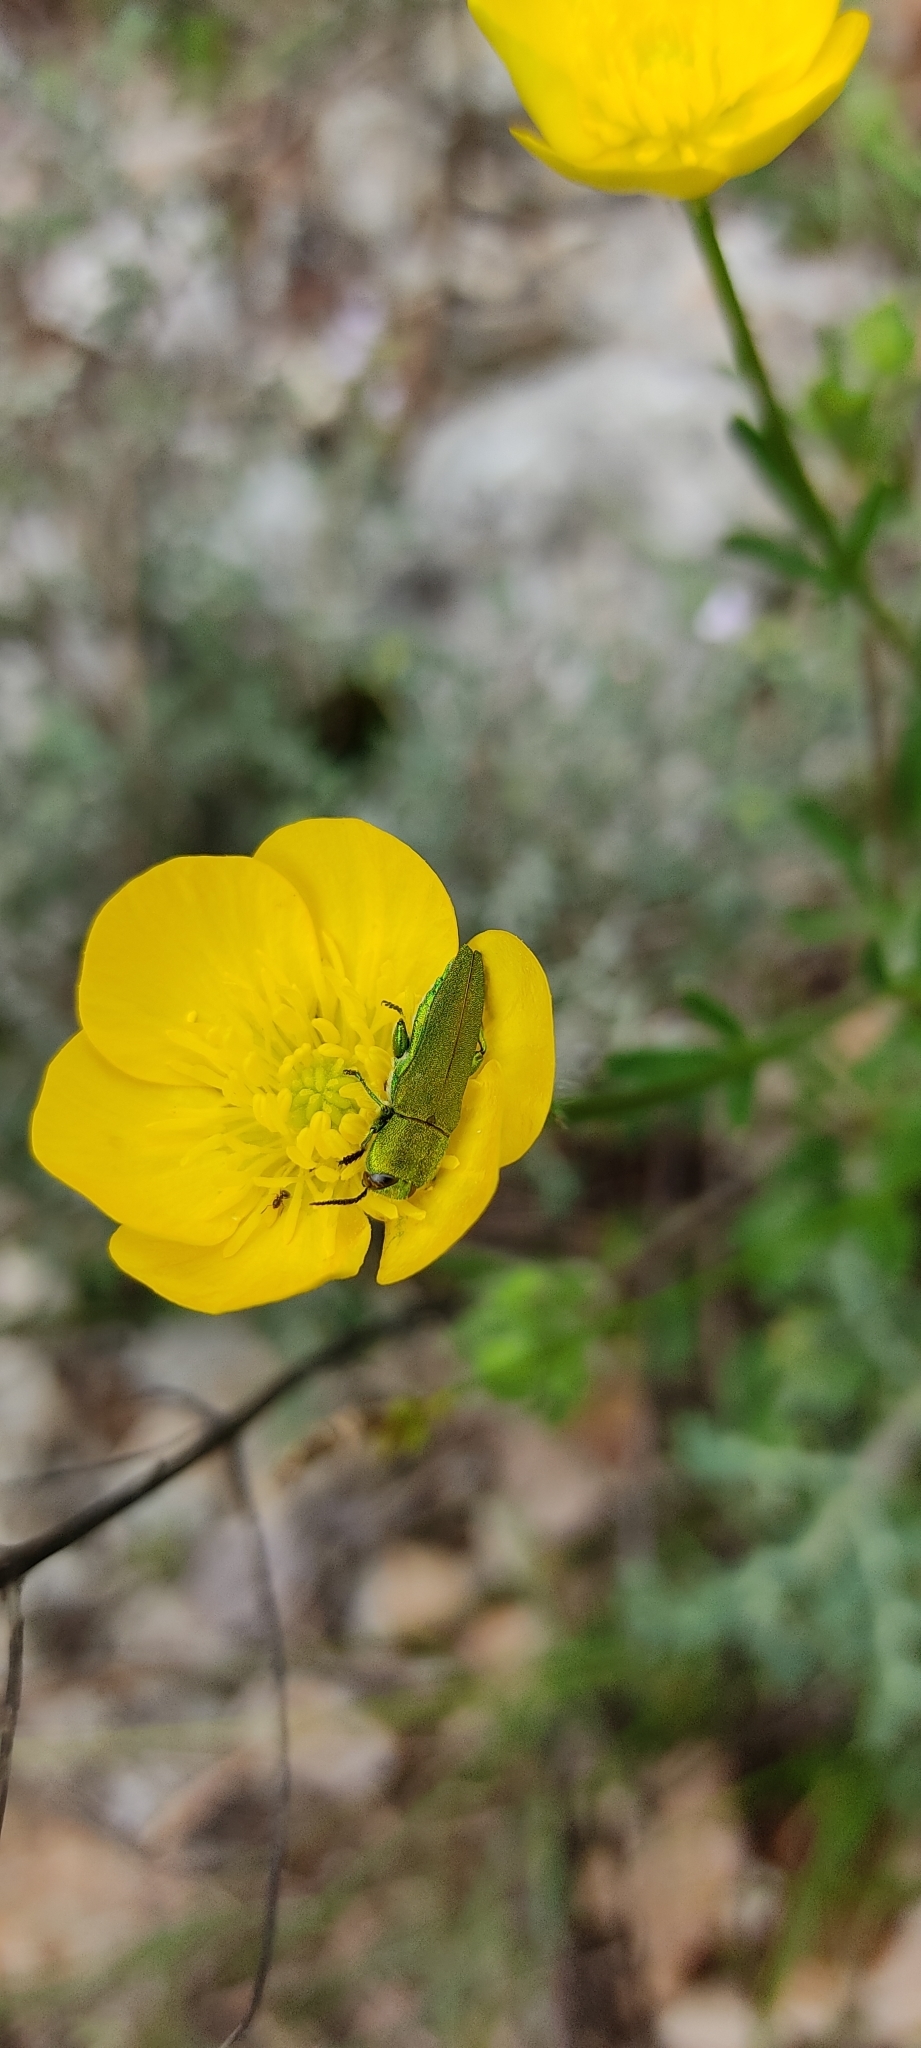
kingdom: Animalia
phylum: Arthropoda
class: Insecta
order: Coleoptera
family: Buprestidae
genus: Anthaxia
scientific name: Anthaxia hungarica
